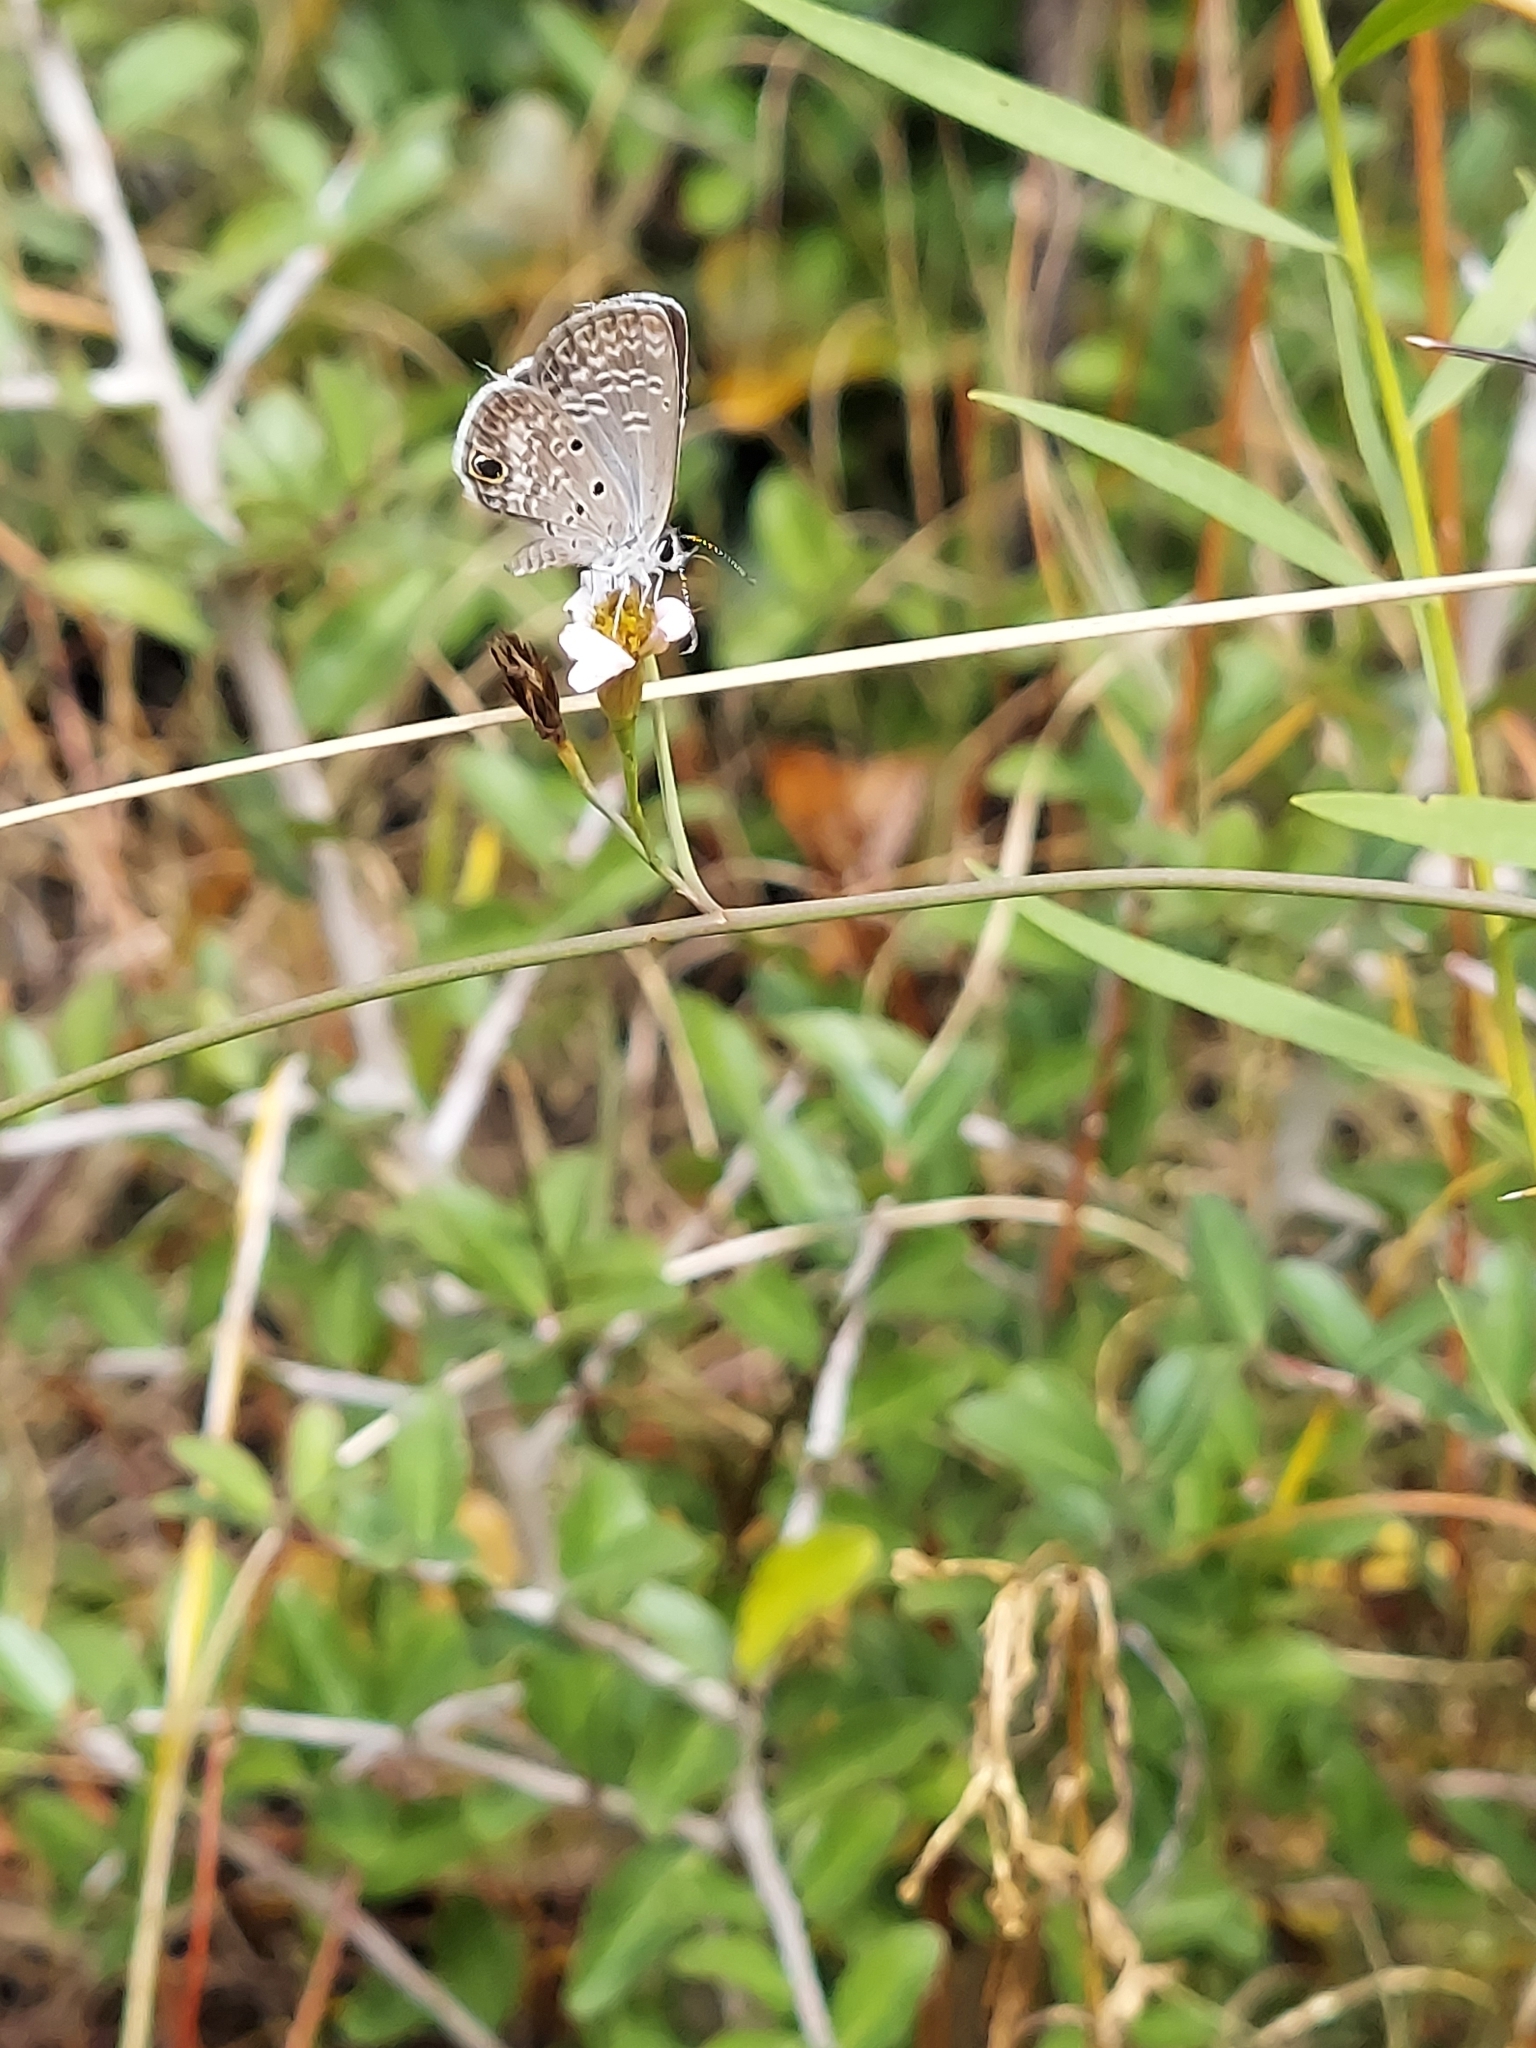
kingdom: Animalia
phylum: Arthropoda
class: Insecta
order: Lepidoptera
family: Lycaenidae
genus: Hemiargus
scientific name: Hemiargus ceraunus
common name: Ceraunus blue
